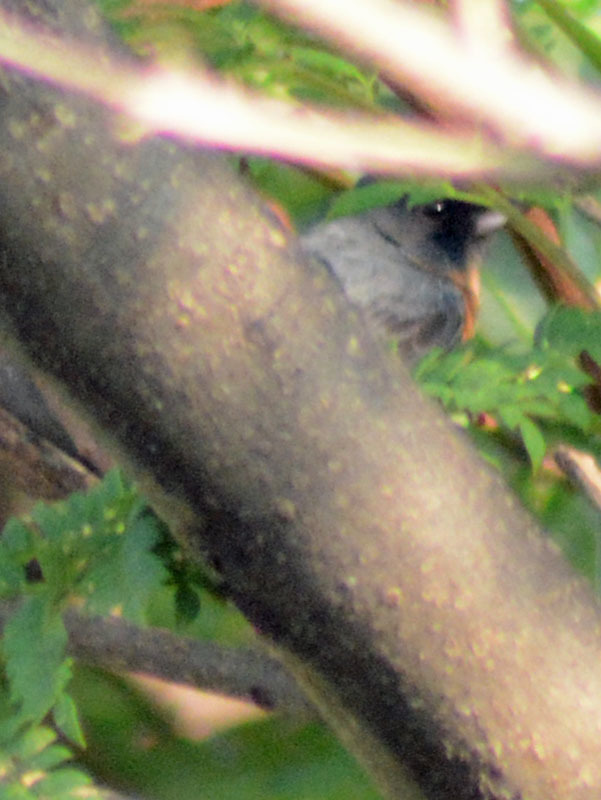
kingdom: Animalia
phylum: Chordata
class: Aves
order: Passeriformes
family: Thraupidae
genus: Diglossa
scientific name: Diglossa baritula
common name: Cinnamon-bellied flowerpiercer
